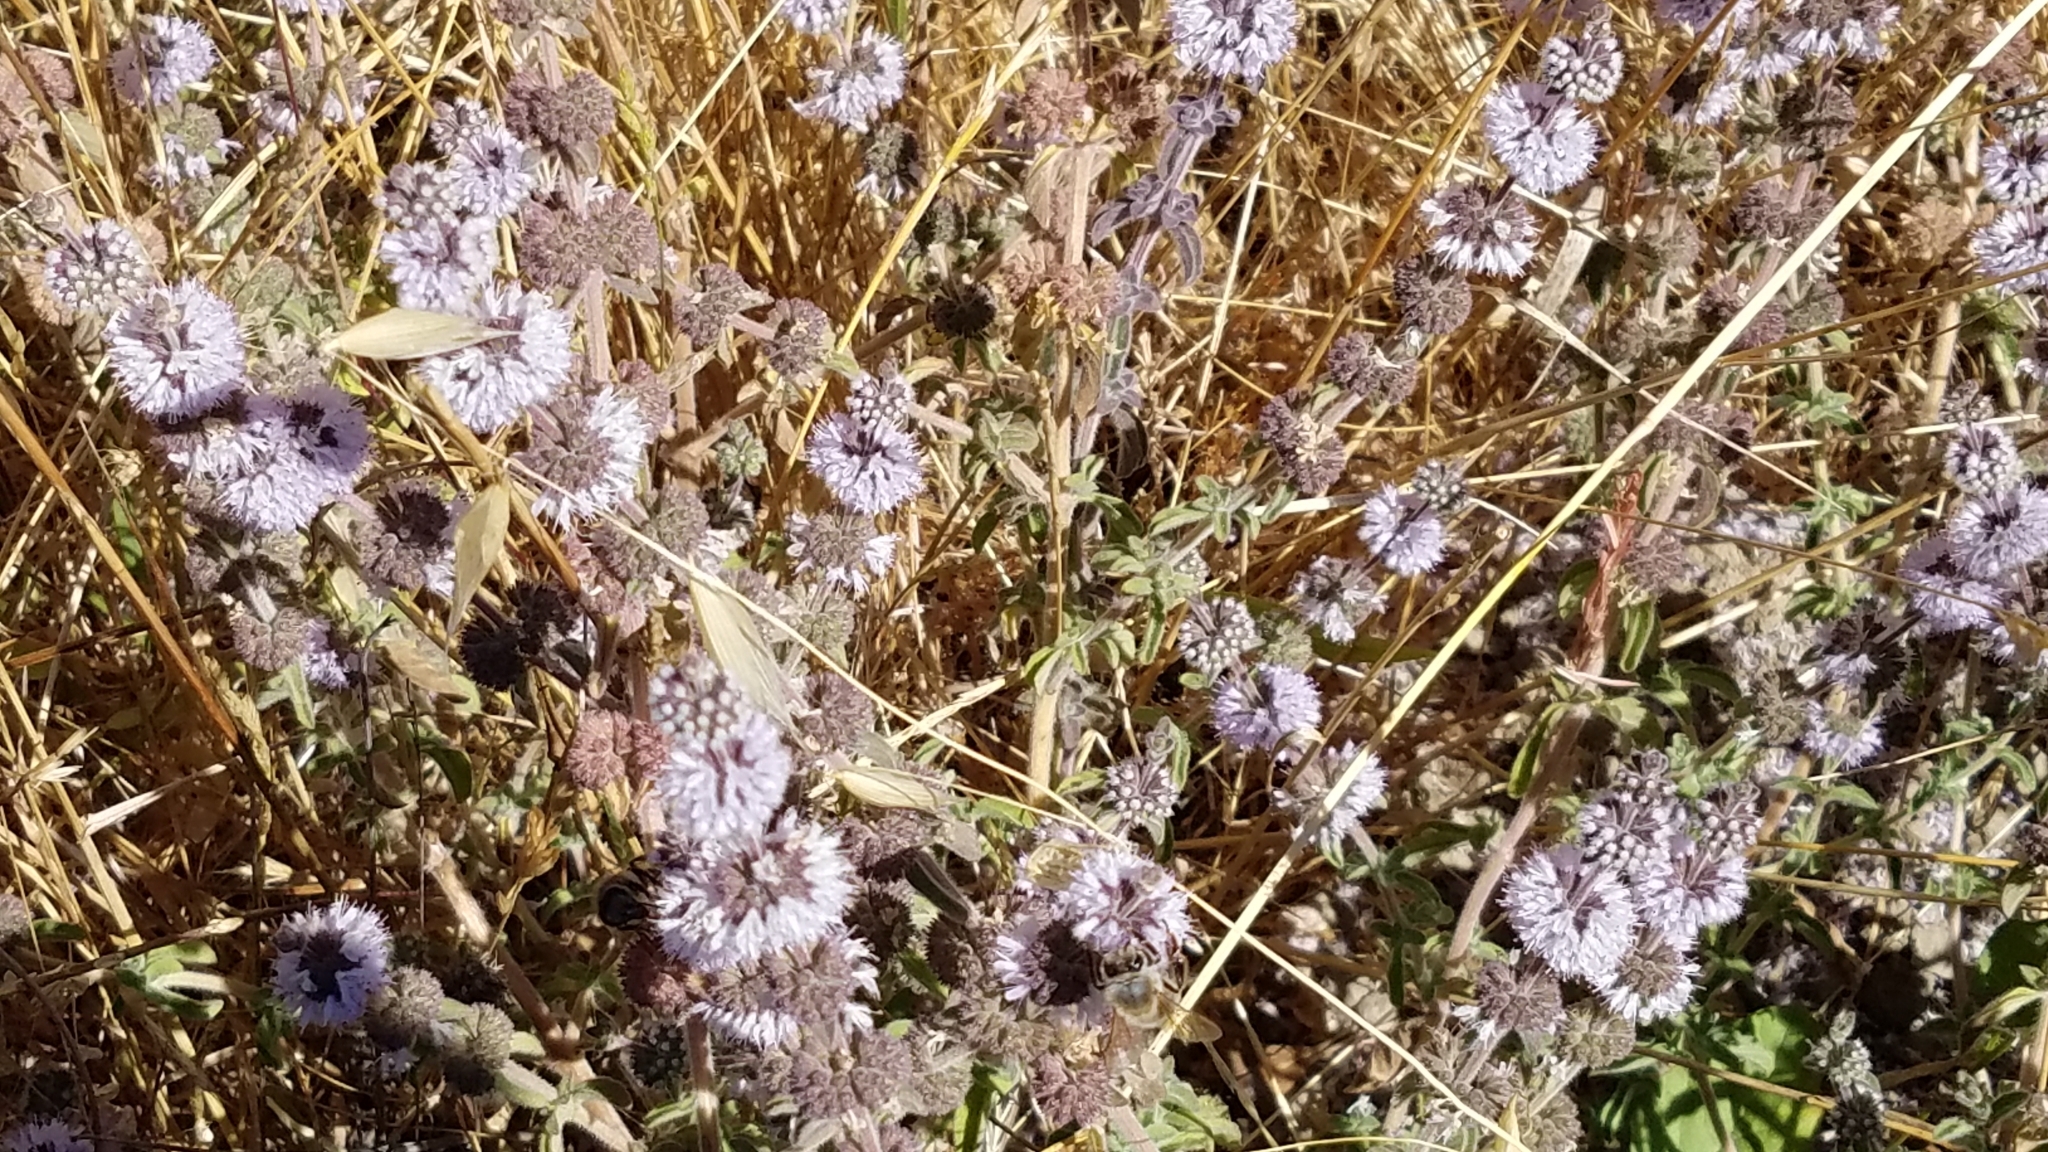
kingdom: Plantae
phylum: Tracheophyta
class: Magnoliopsida
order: Lamiales
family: Lamiaceae
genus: Mentha
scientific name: Mentha pulegium
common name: Pennyroyal
